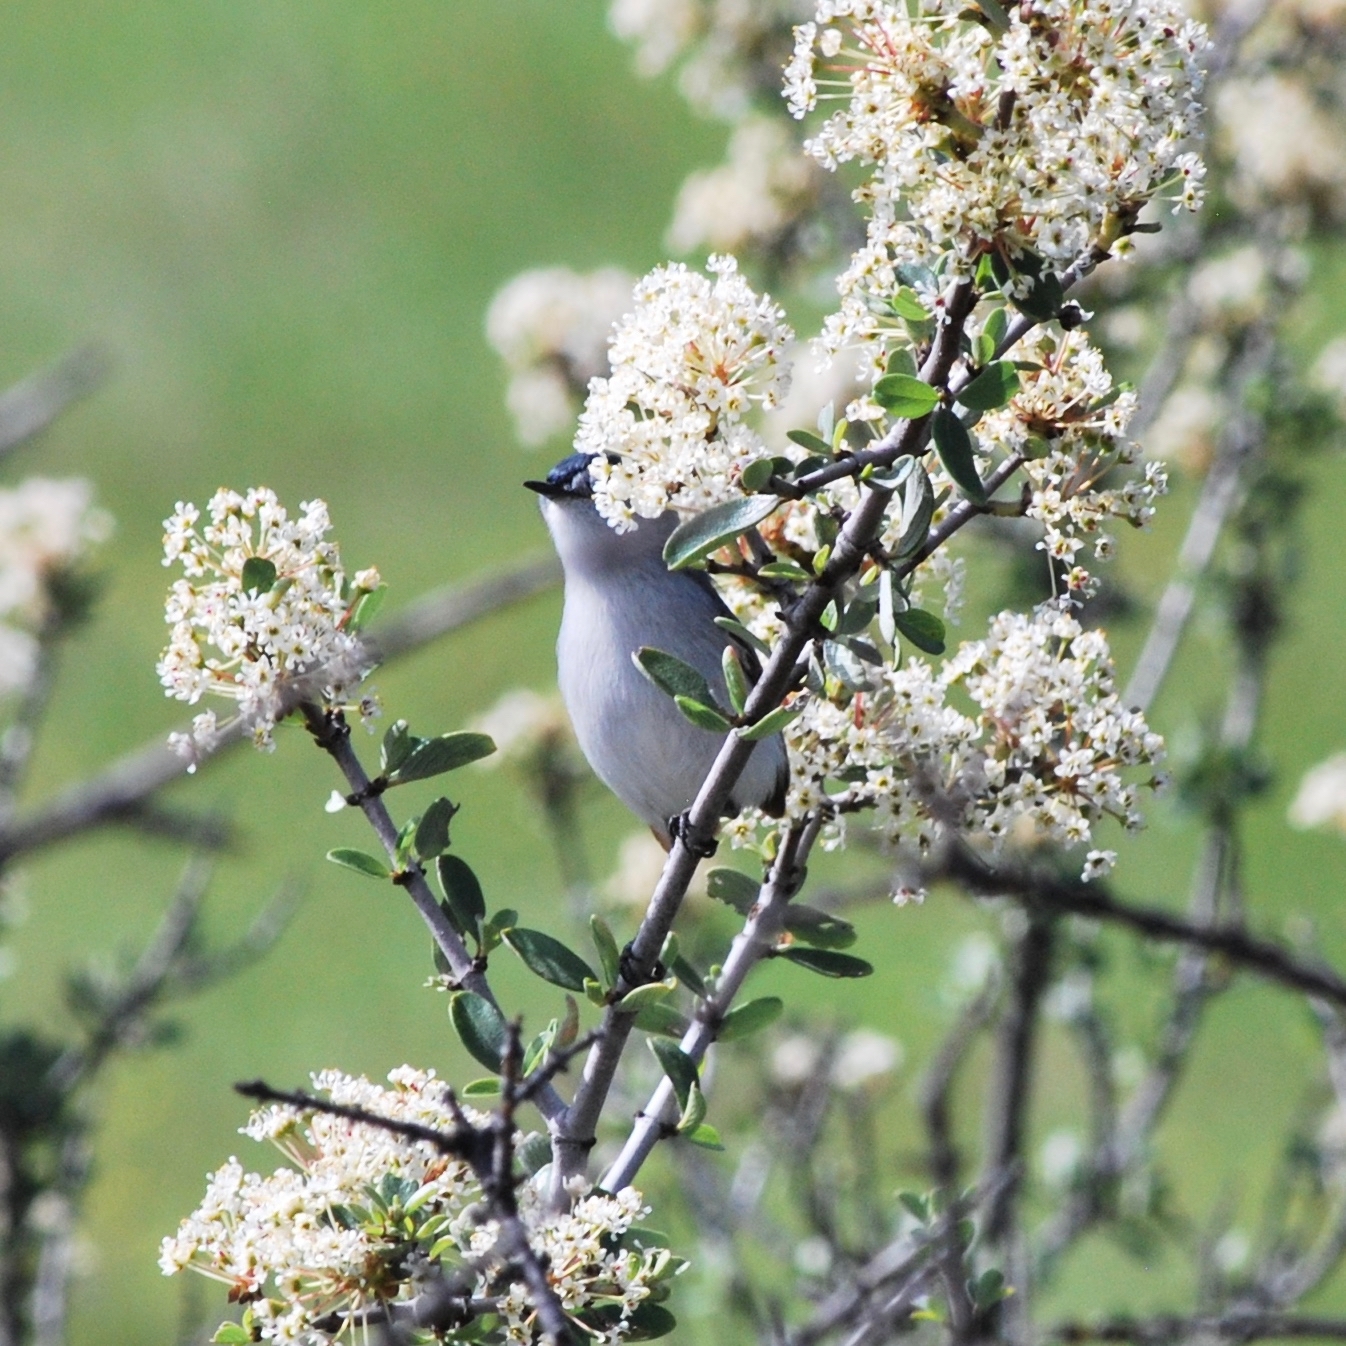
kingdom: Animalia
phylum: Chordata
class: Aves
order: Passeriformes
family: Polioptilidae
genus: Polioptila
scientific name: Polioptila caerulea
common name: Blue-gray gnatcatcher
